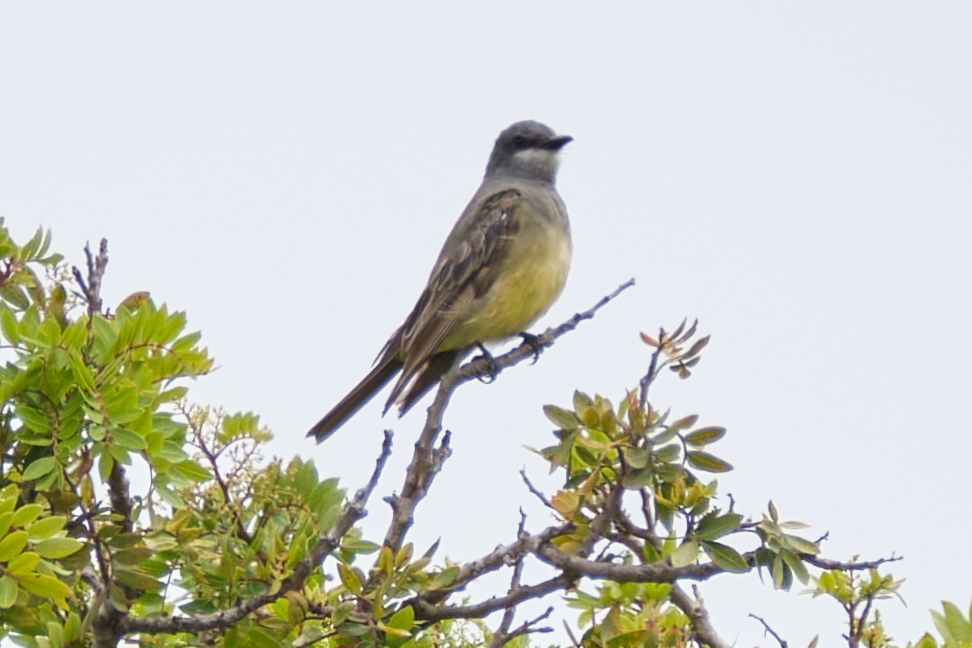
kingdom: Animalia
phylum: Chordata
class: Aves
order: Passeriformes
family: Tyrannidae
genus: Tyrannus
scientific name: Tyrannus vociferans
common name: Cassin's kingbird
